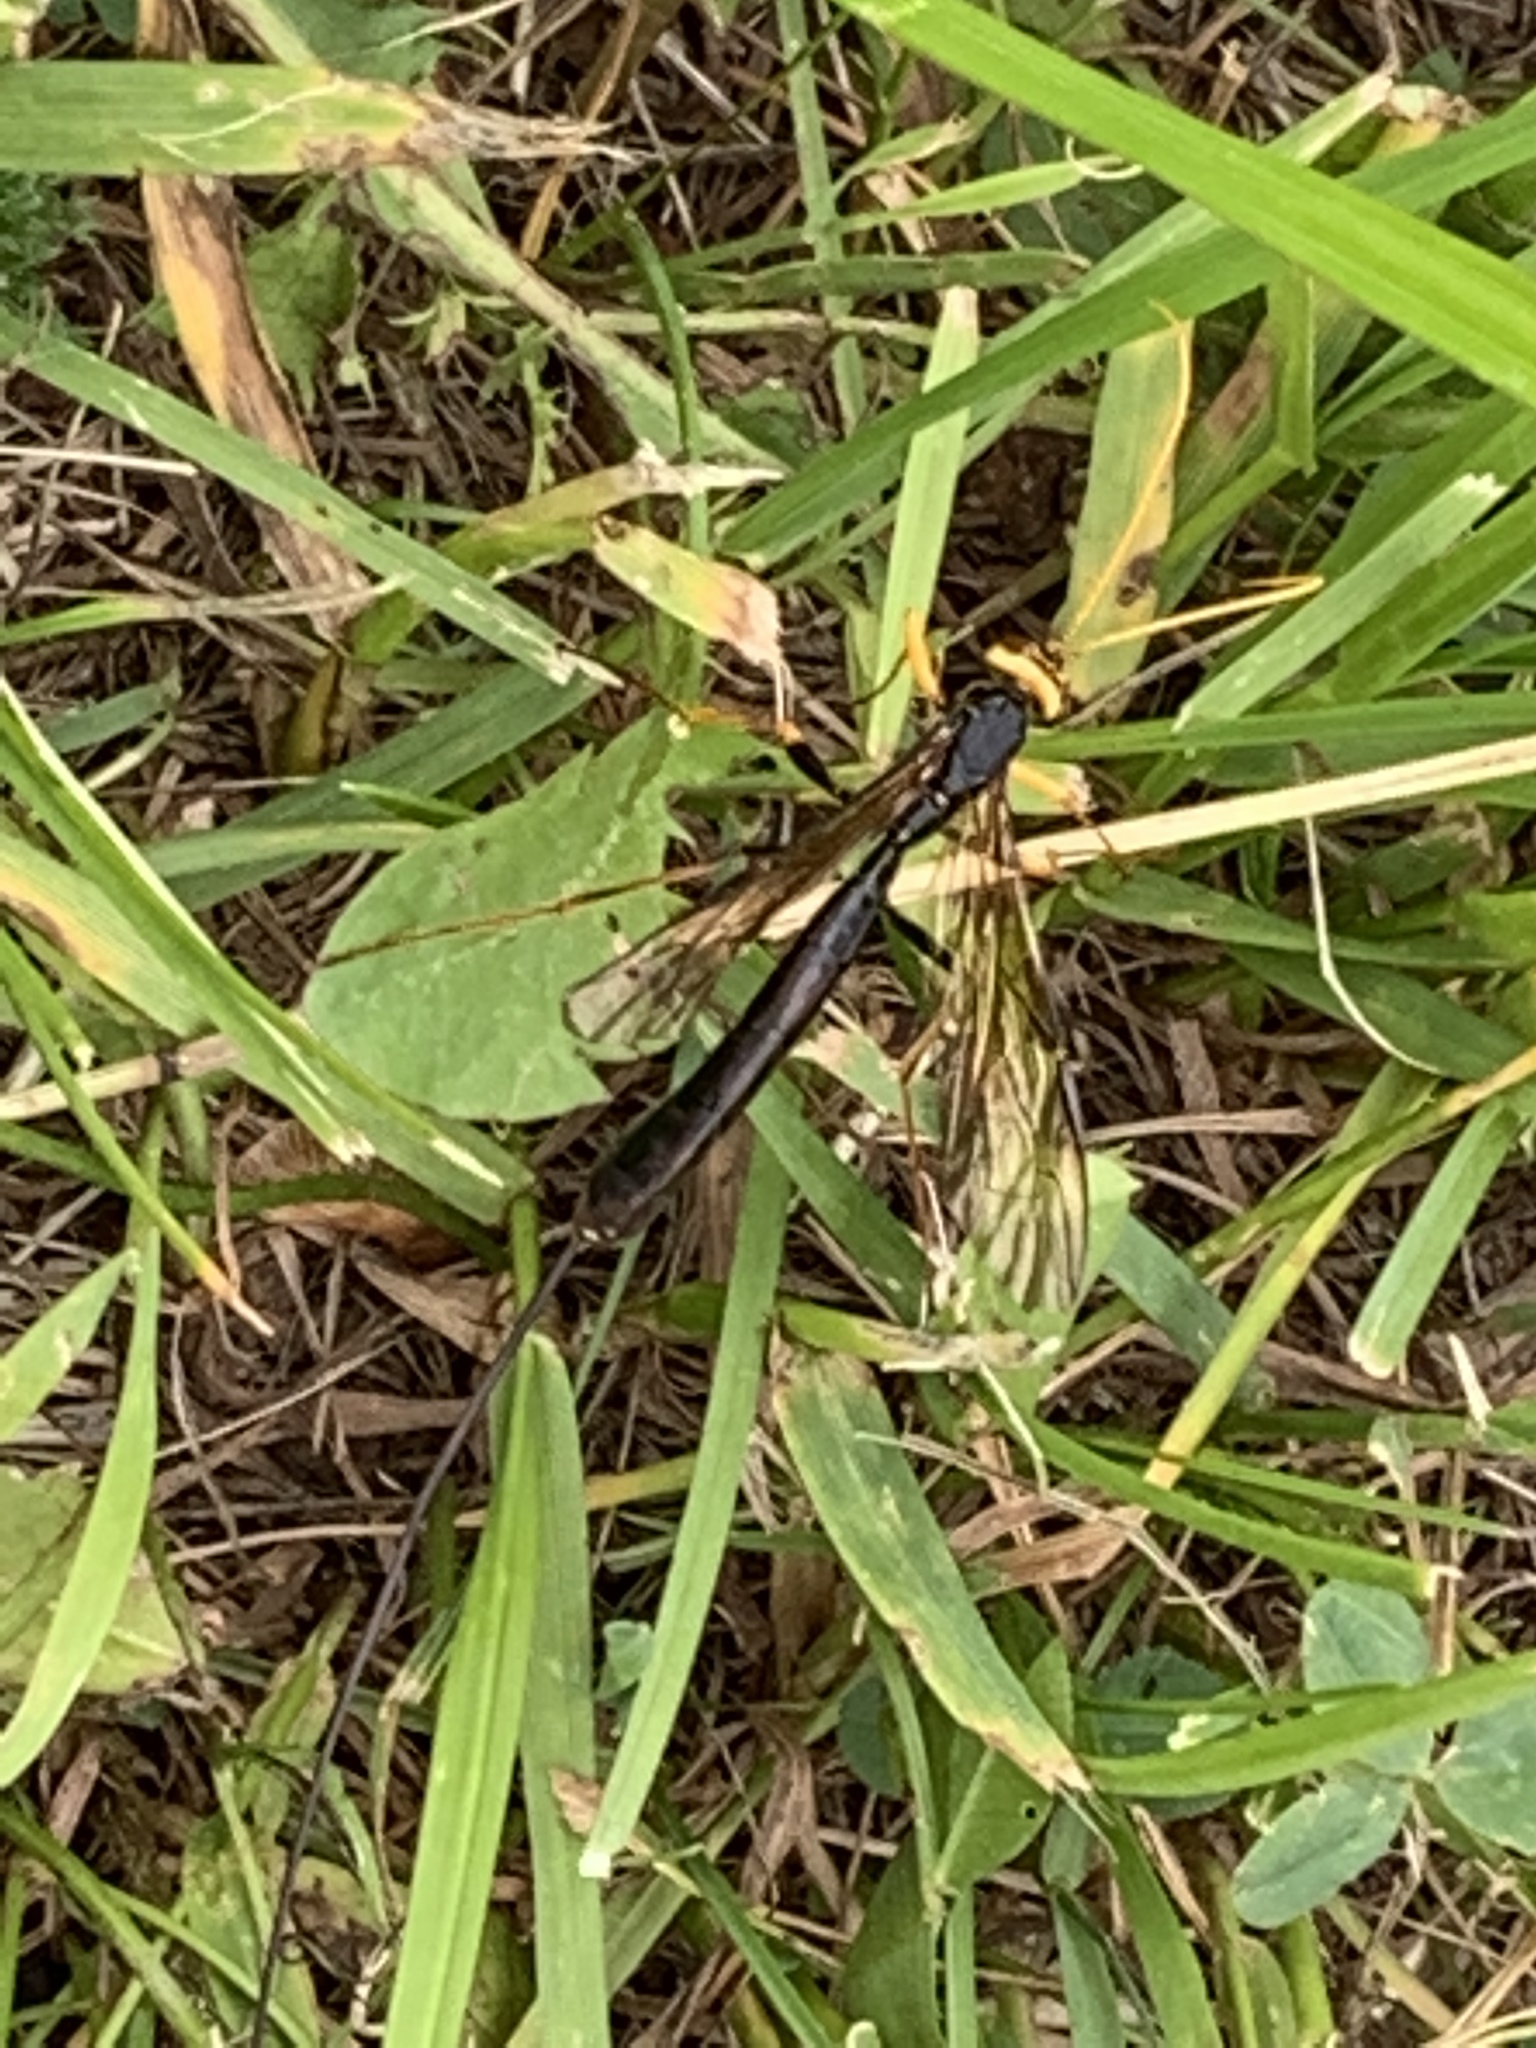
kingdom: Animalia
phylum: Arthropoda
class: Insecta
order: Hymenoptera
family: Ichneumonidae
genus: Megarhyssa
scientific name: Megarhyssa atrata
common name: Black giant ichneumonid wasp
